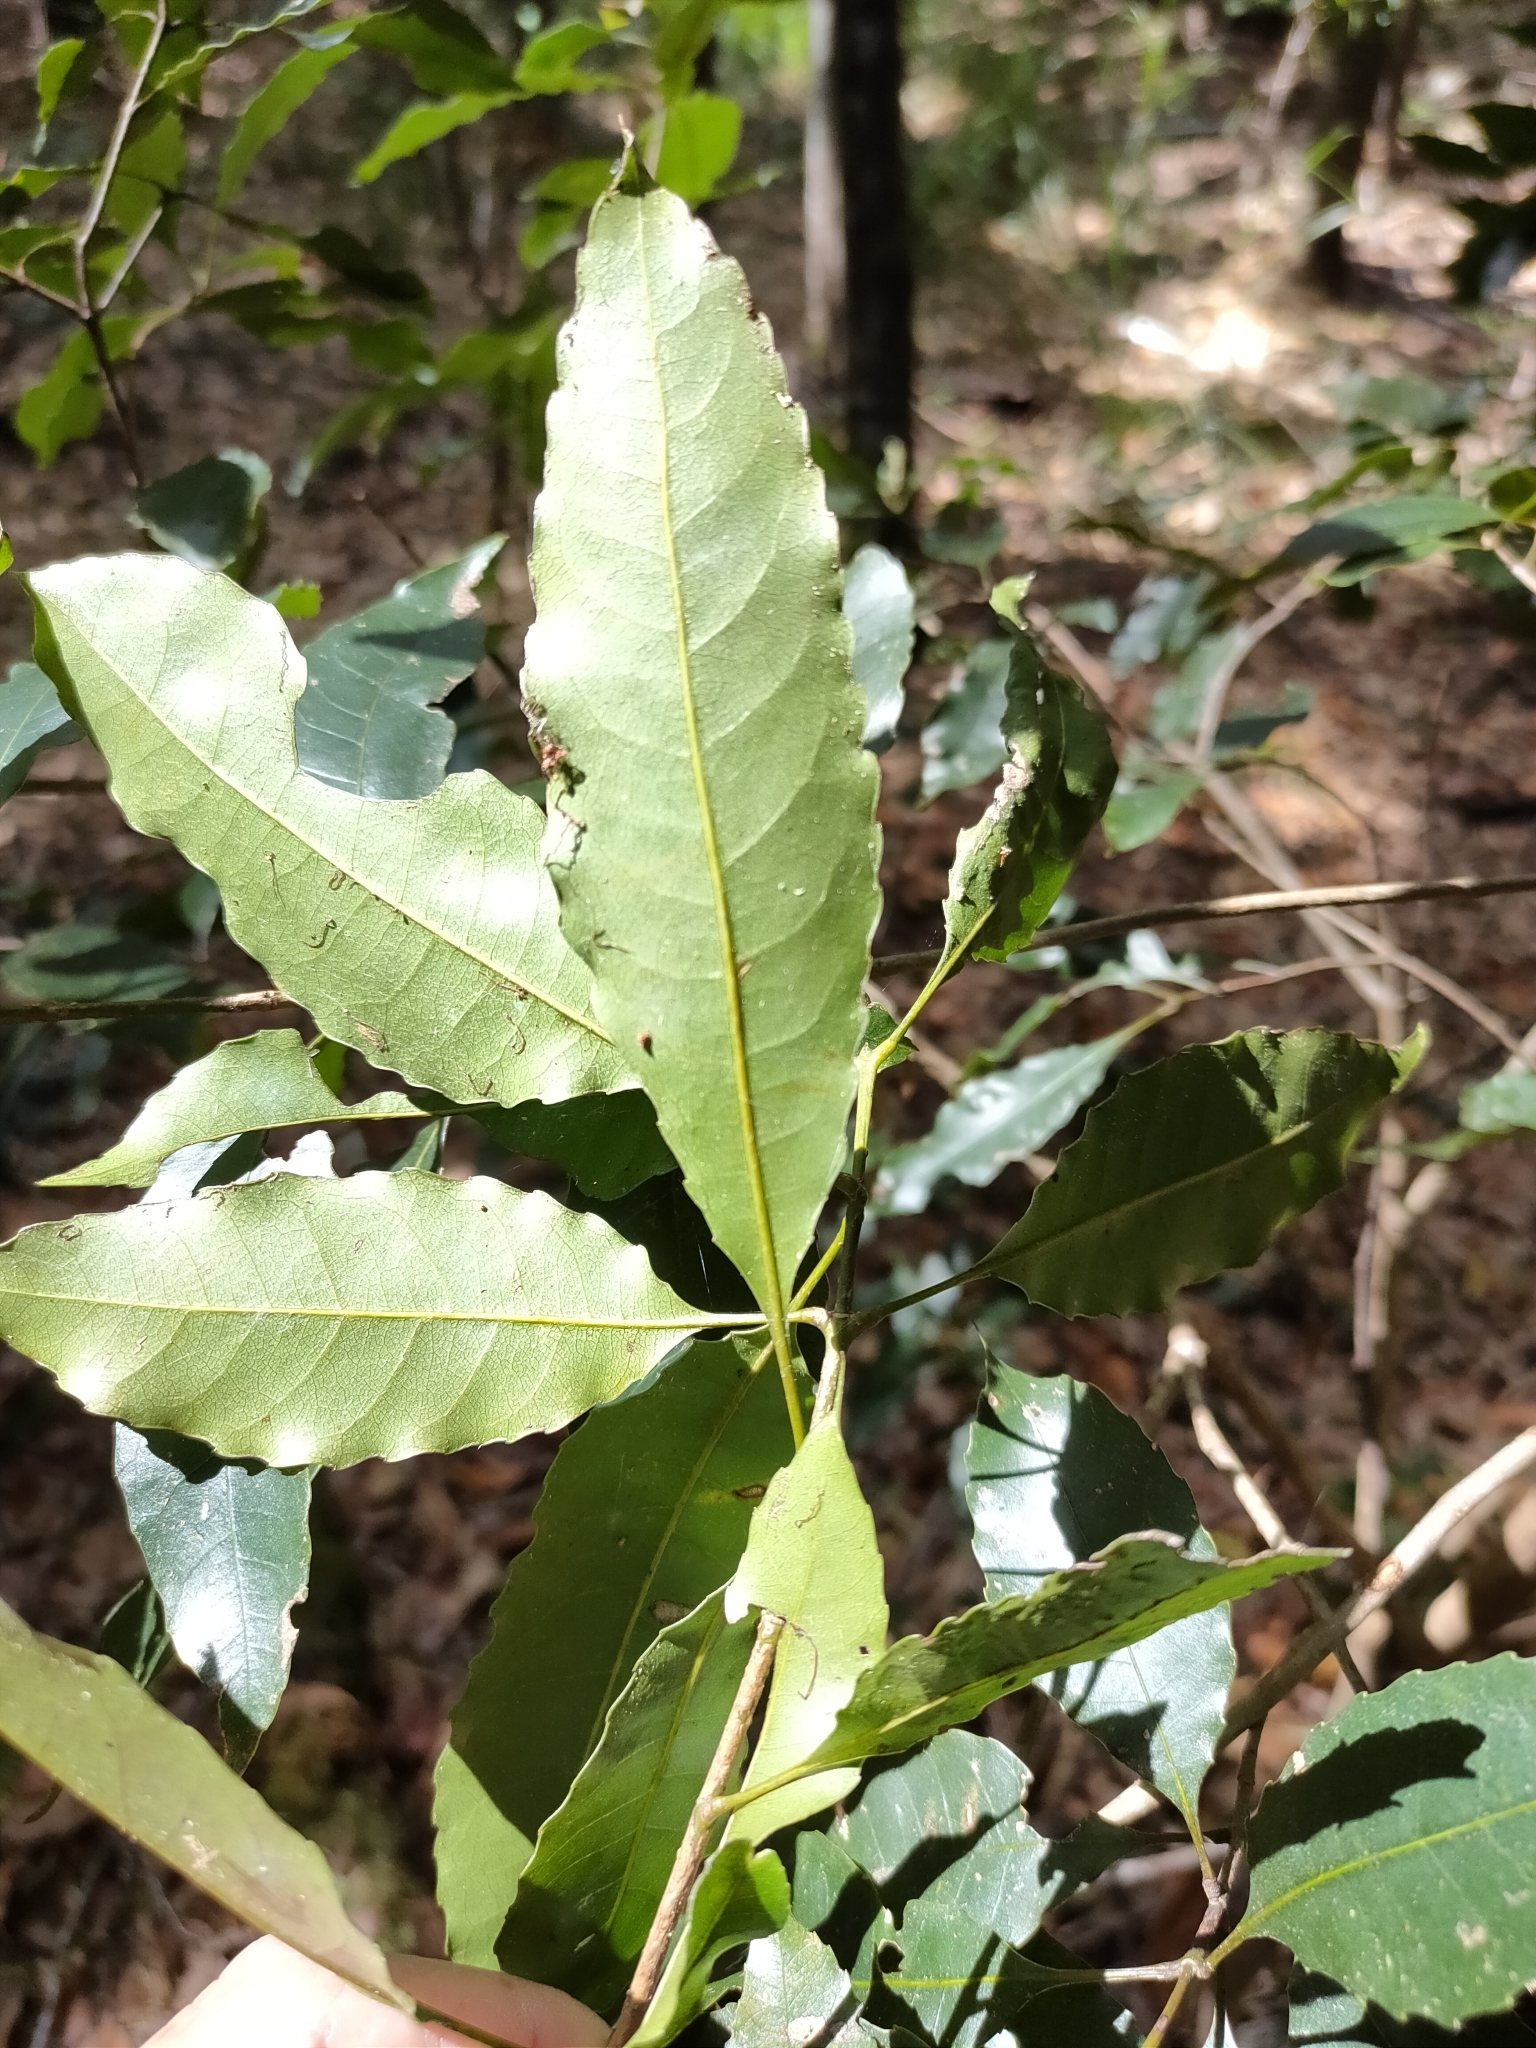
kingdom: Plantae
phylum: Tracheophyta
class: Magnoliopsida
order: Oxalidales
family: Cunoniaceae
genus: Schizomeria
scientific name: Schizomeria ovata
